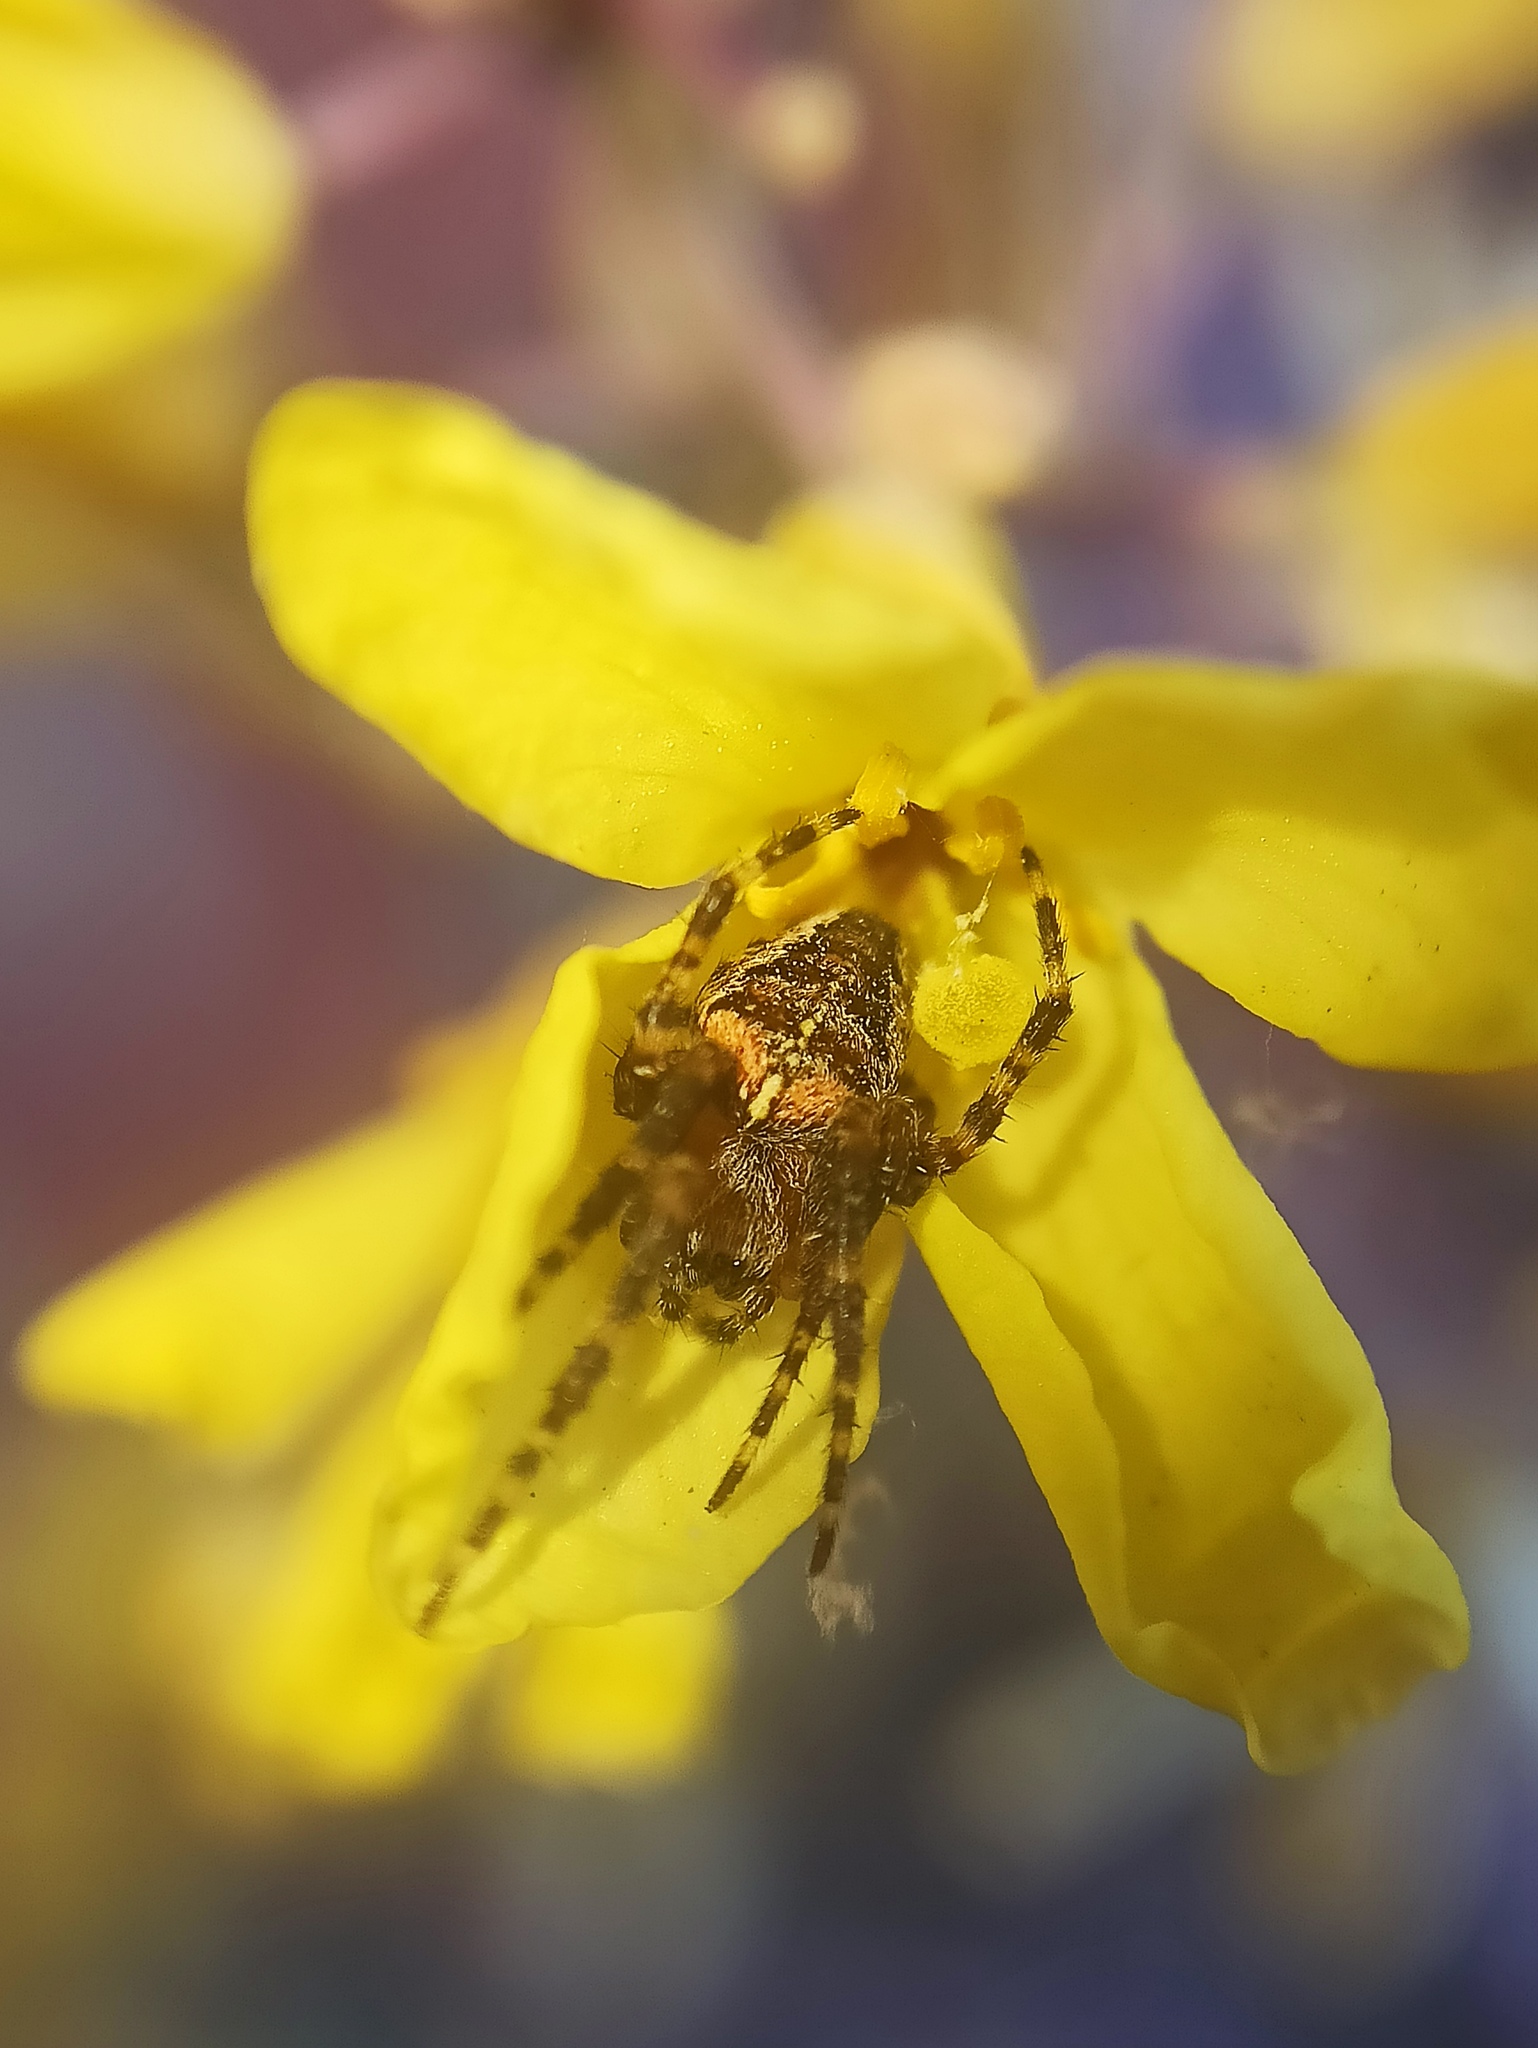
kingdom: Animalia
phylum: Arthropoda
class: Arachnida
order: Araneae
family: Araneidae
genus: Araneus
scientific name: Araneus diadematus
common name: Cross orbweaver
